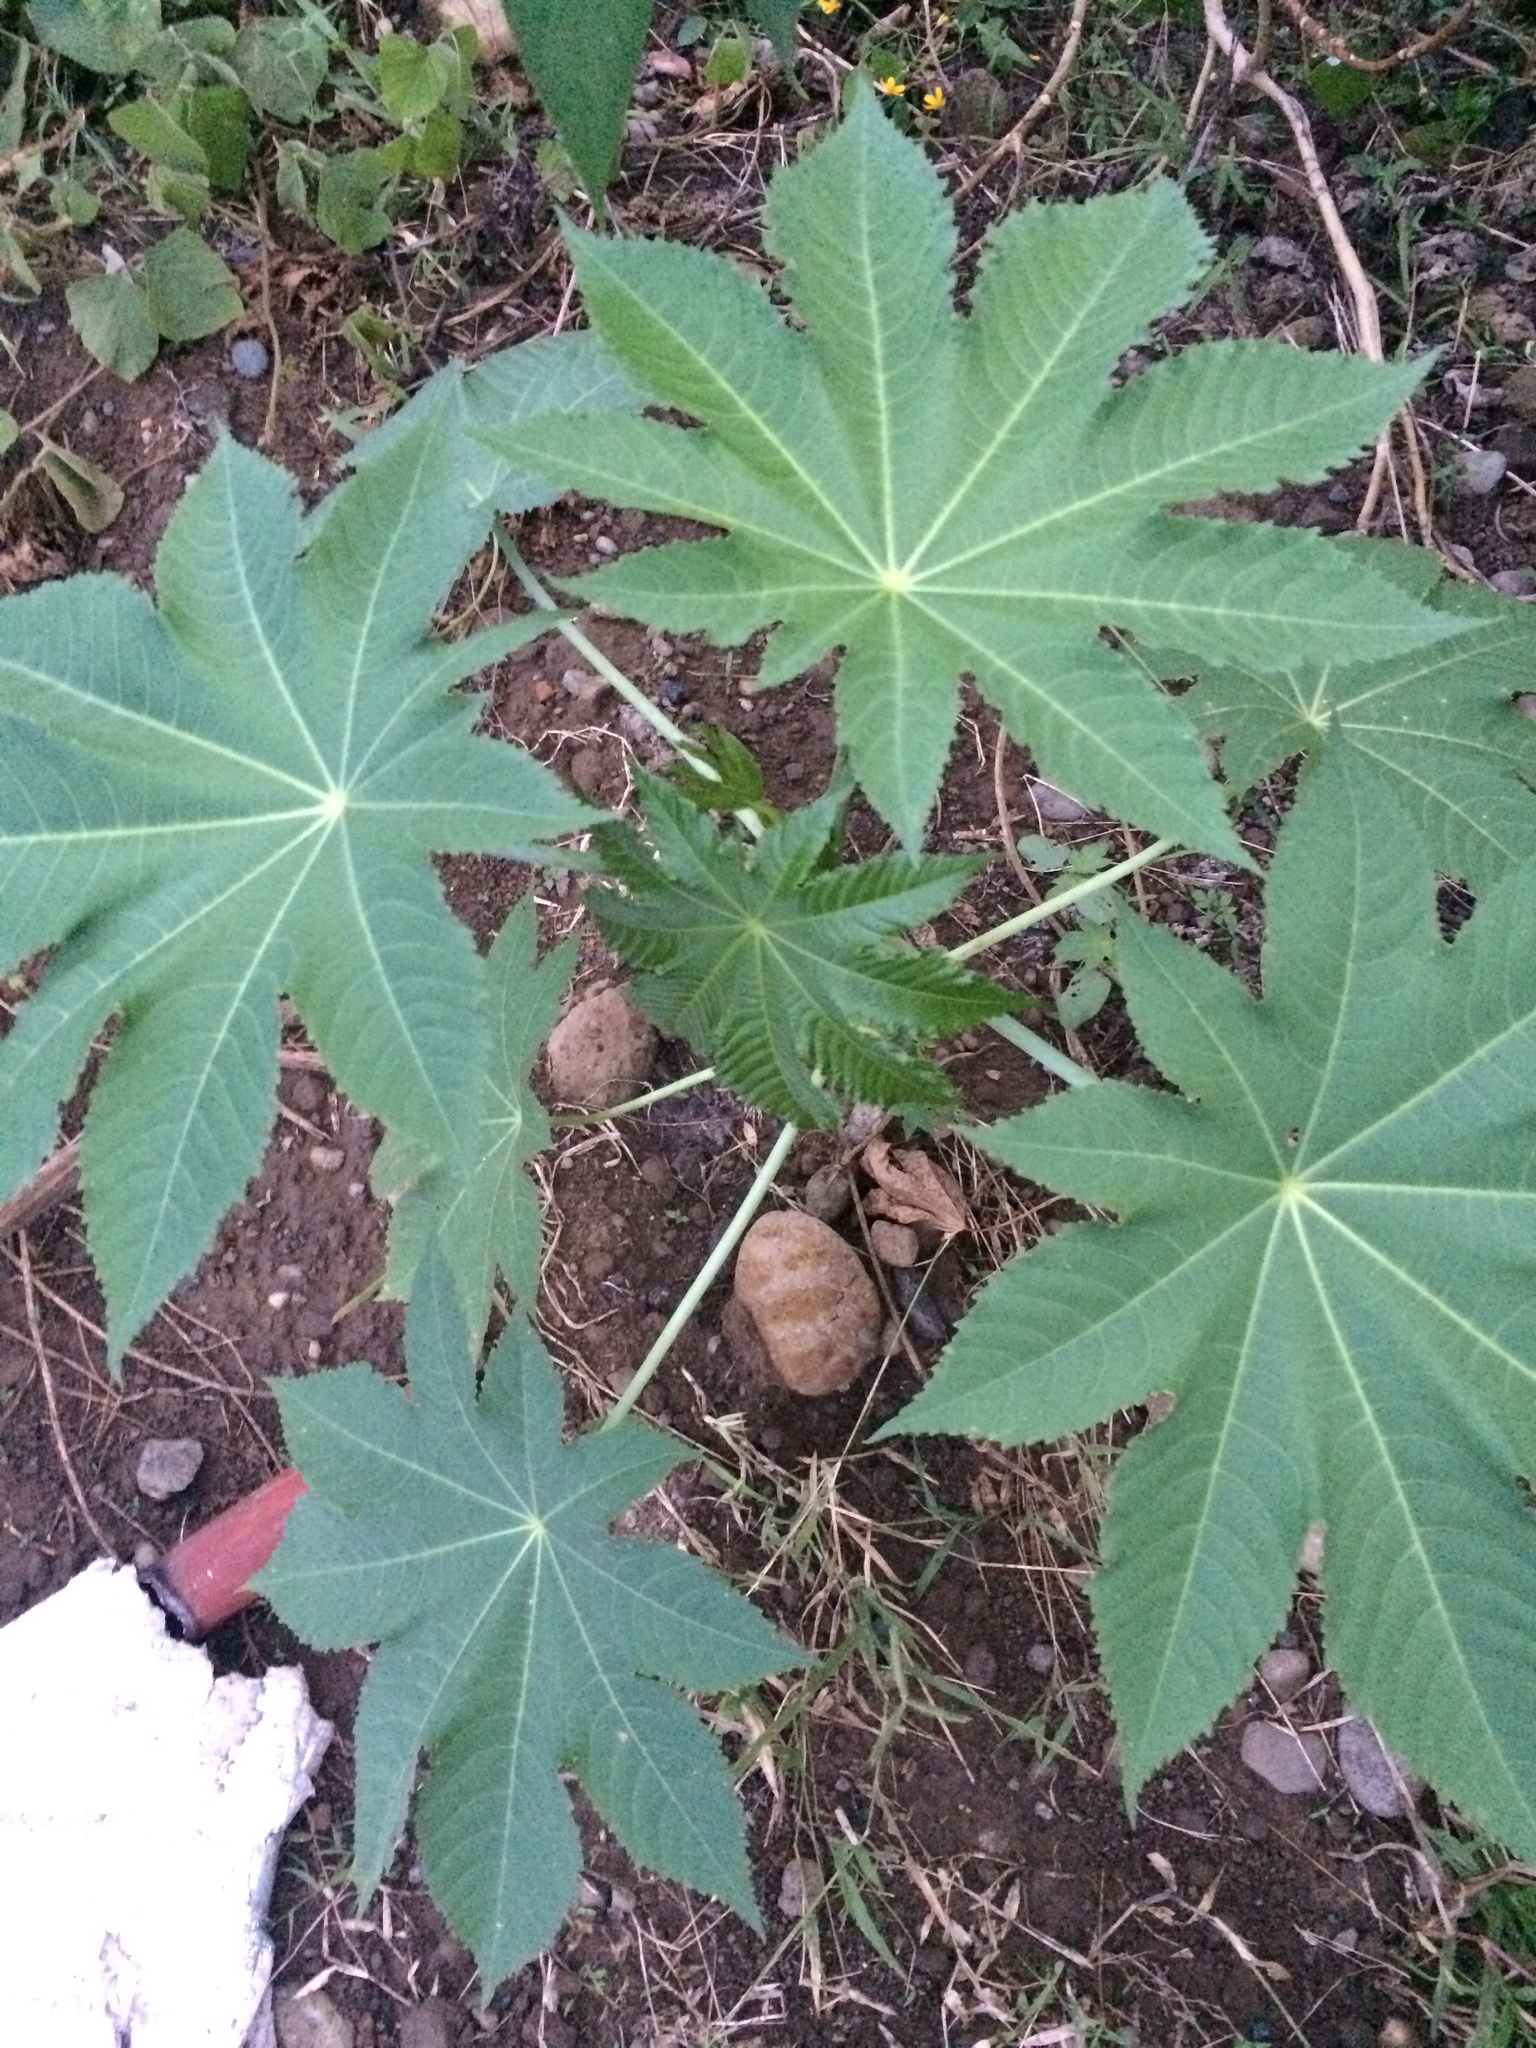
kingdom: Plantae
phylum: Tracheophyta
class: Magnoliopsida
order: Malpighiales
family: Euphorbiaceae
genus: Ricinus
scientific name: Ricinus communis
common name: Castor-oil-plant
